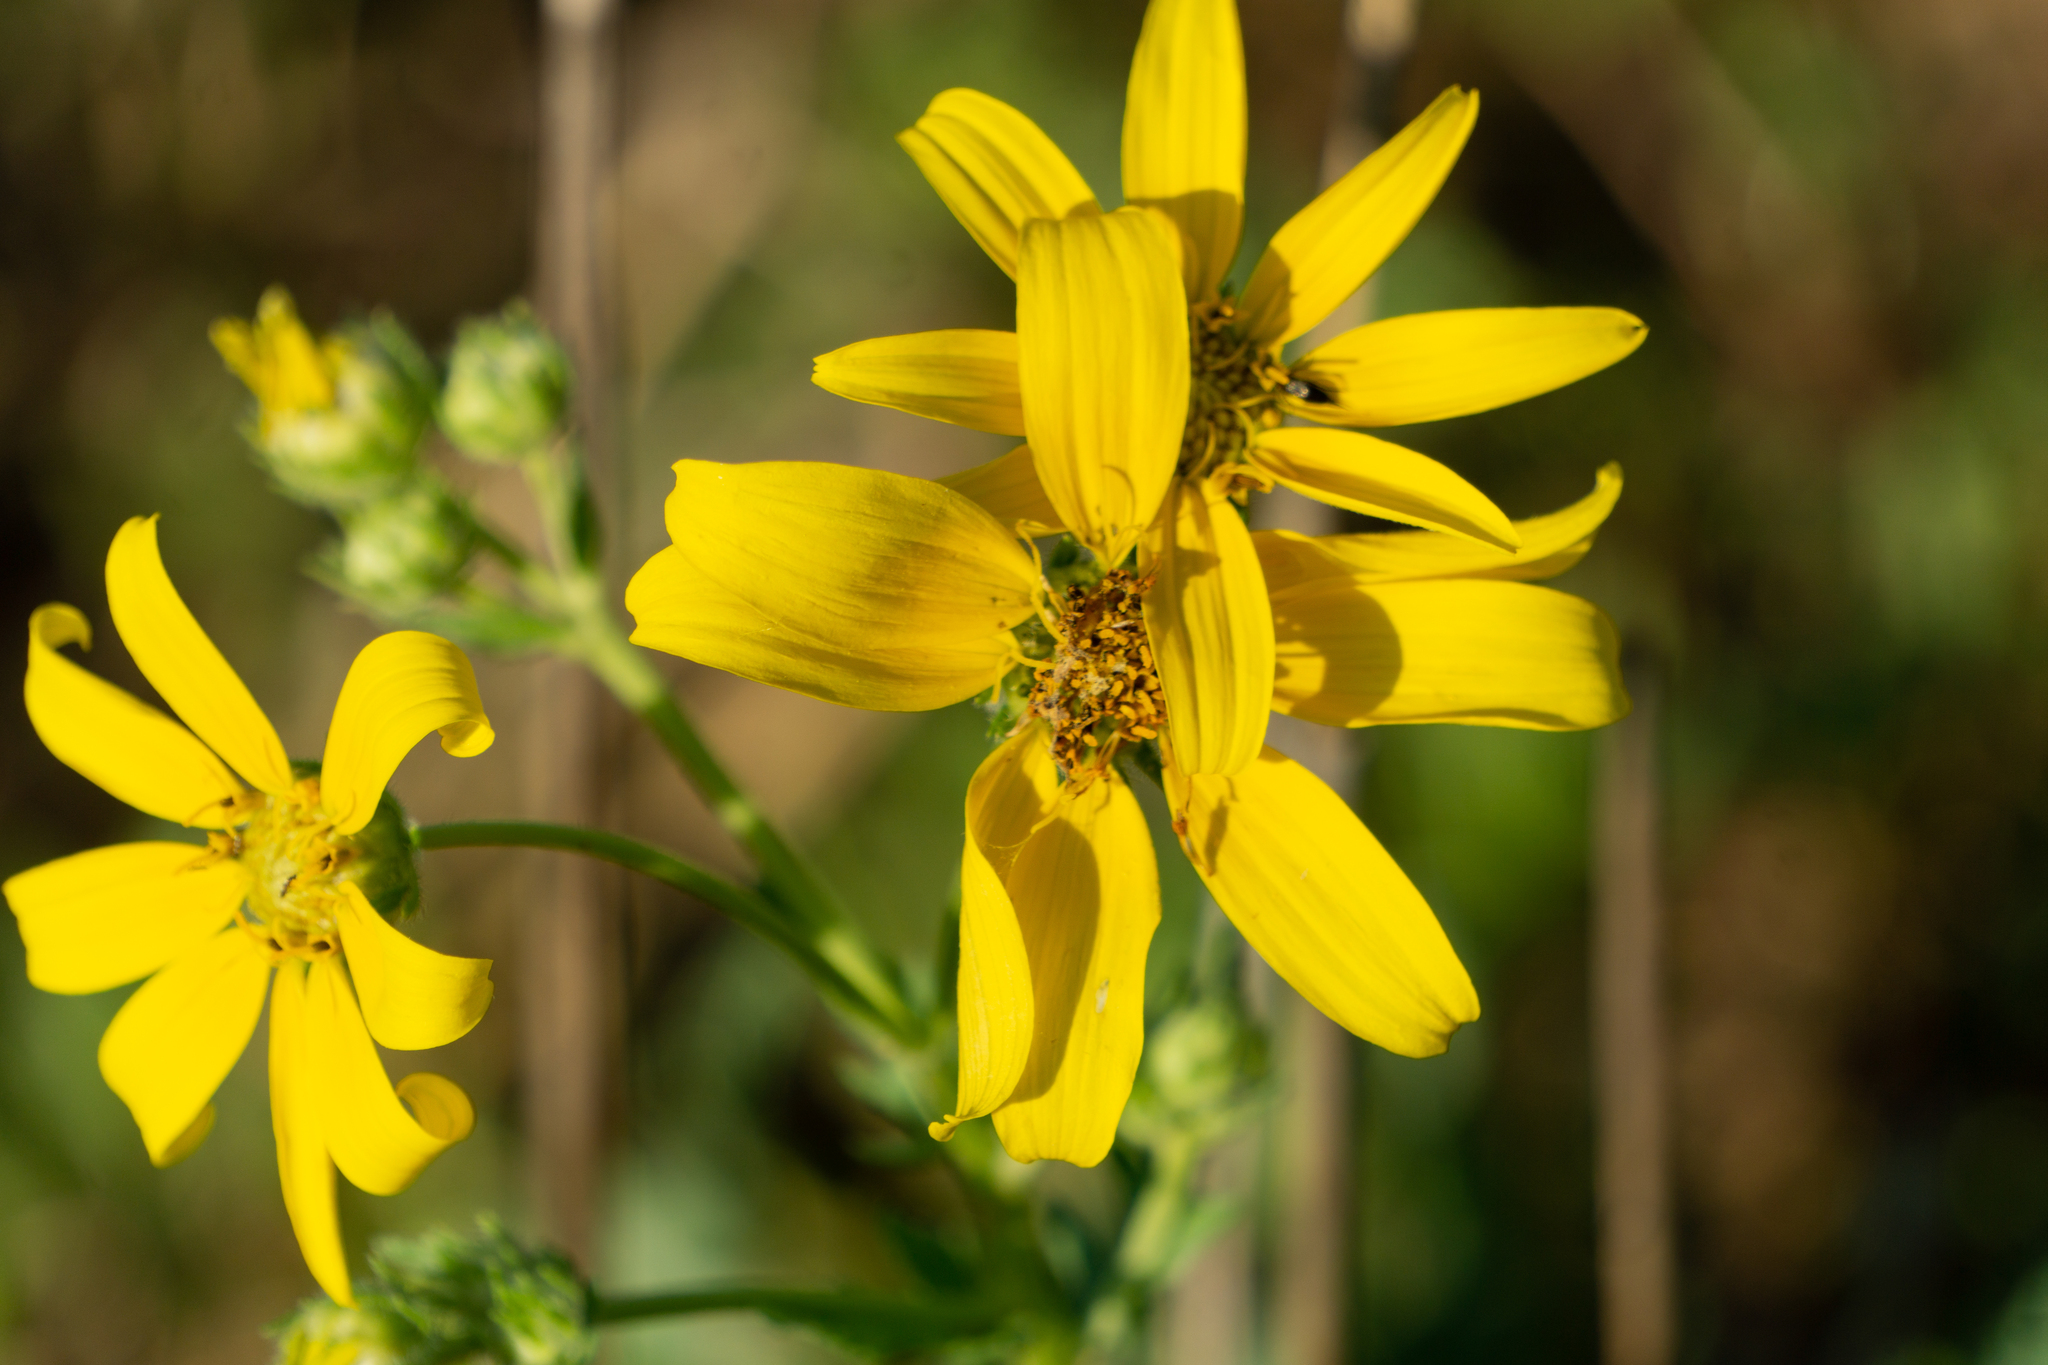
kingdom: Plantae
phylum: Tracheophyta
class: Magnoliopsida
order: Asterales
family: Asteraceae
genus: Engelmannia
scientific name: Engelmannia peristenia
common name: Engelmann's daisy
